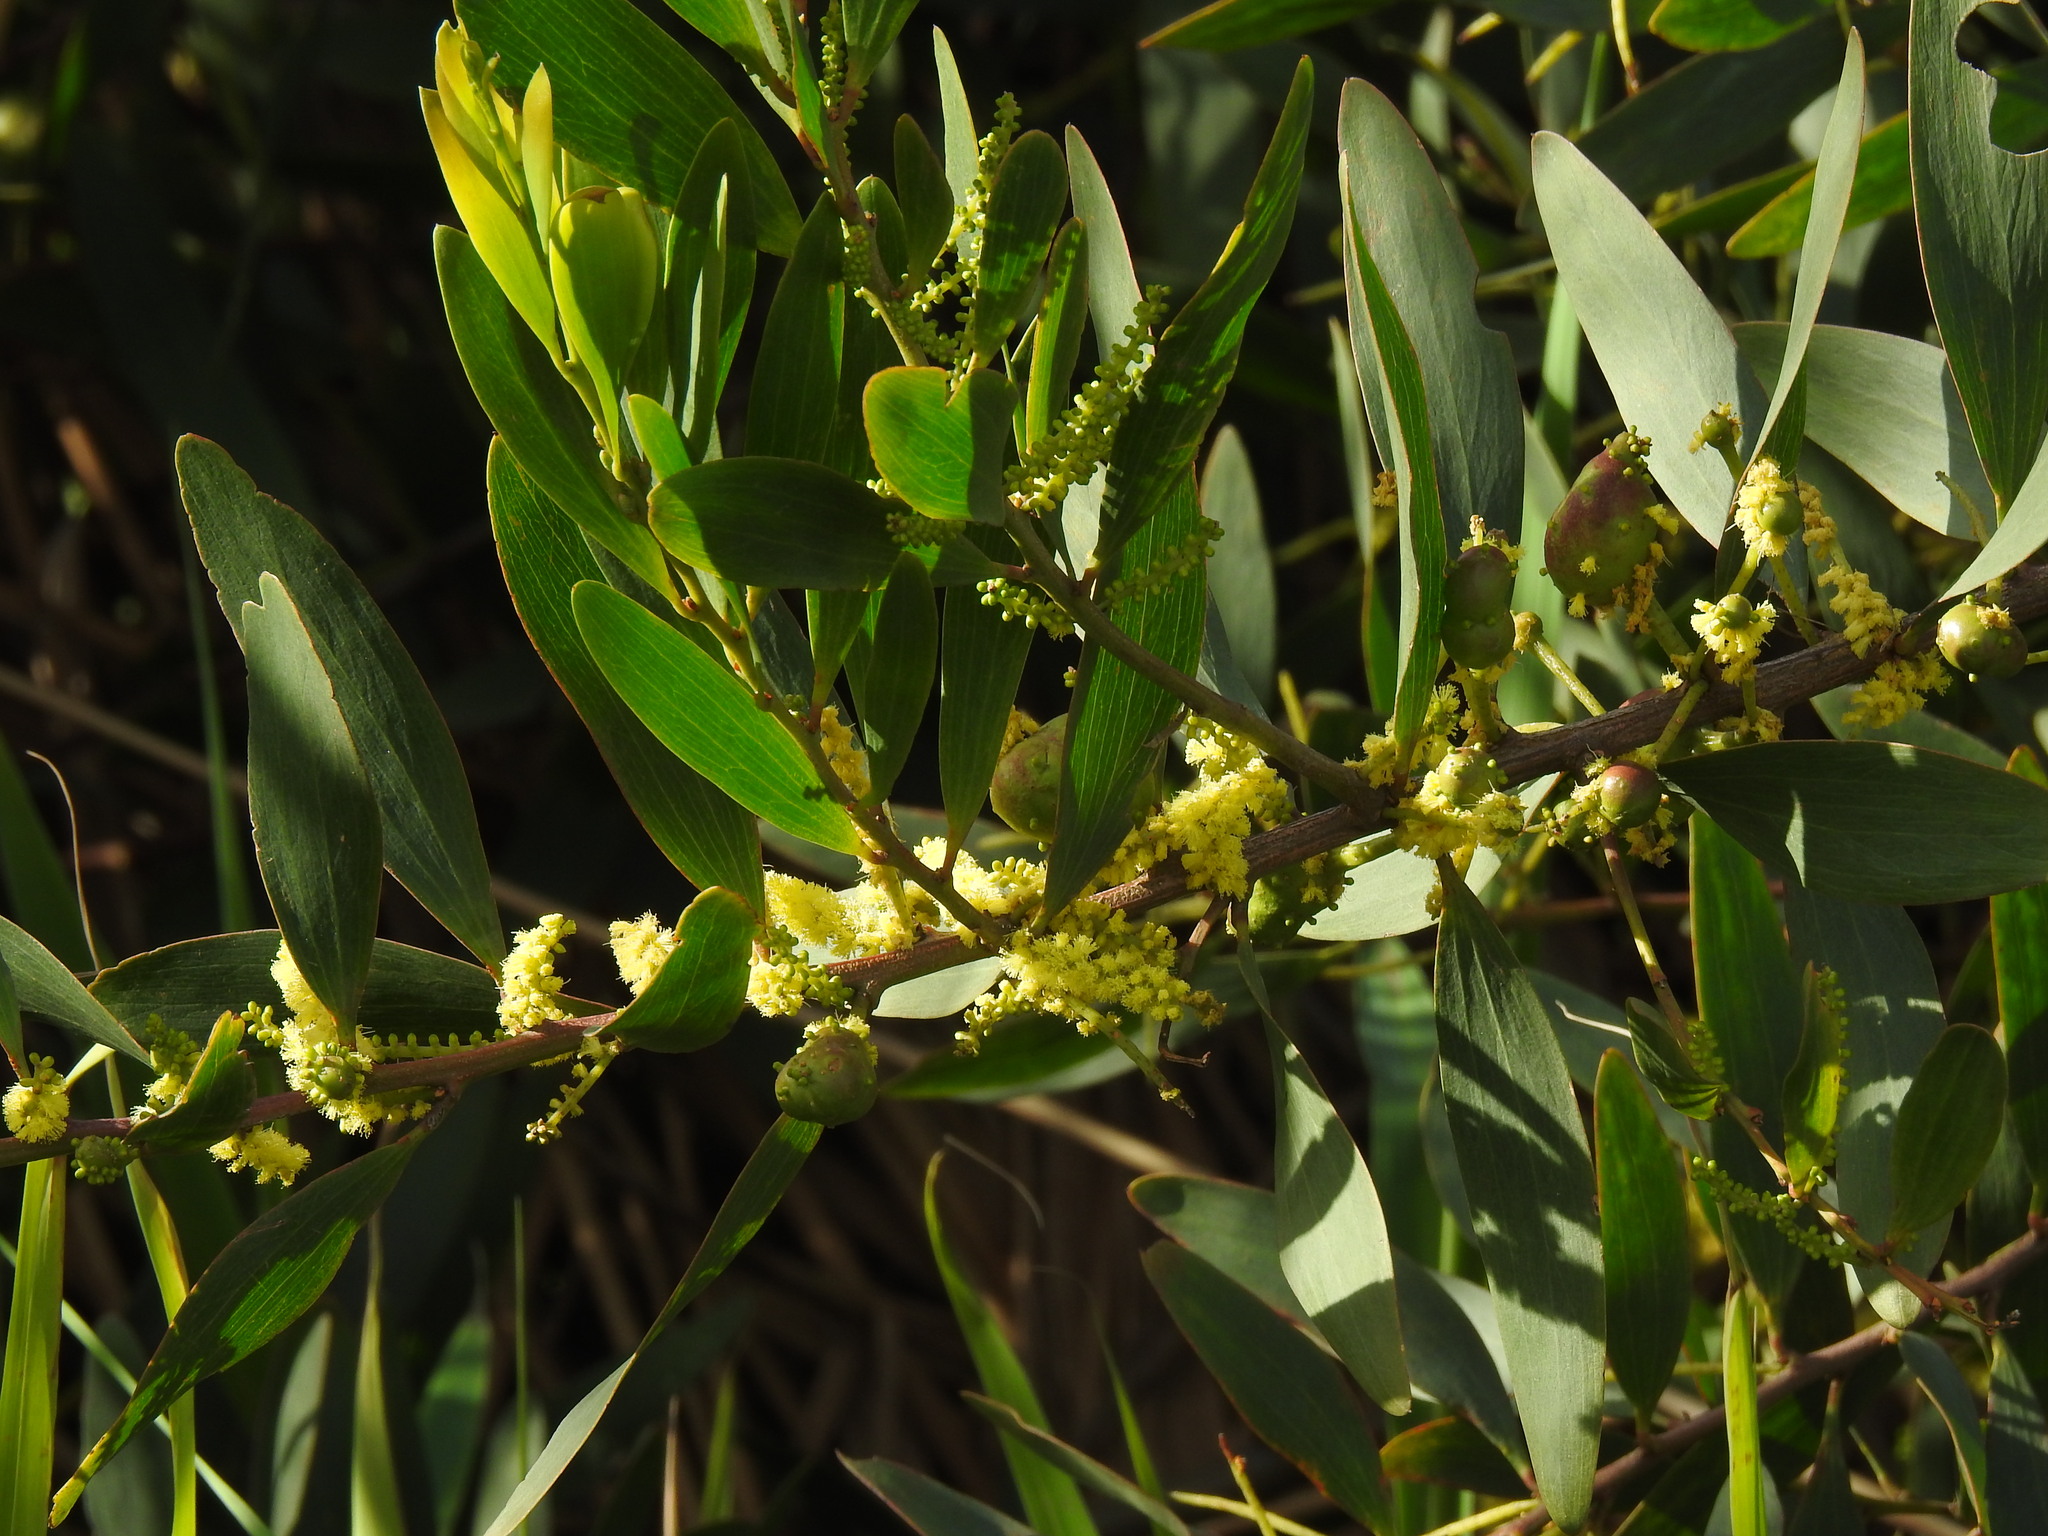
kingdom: Plantae
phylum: Tracheophyta
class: Magnoliopsida
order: Fabales
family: Fabaceae
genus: Acacia
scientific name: Acacia longifolia
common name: Sydney golden wattle
